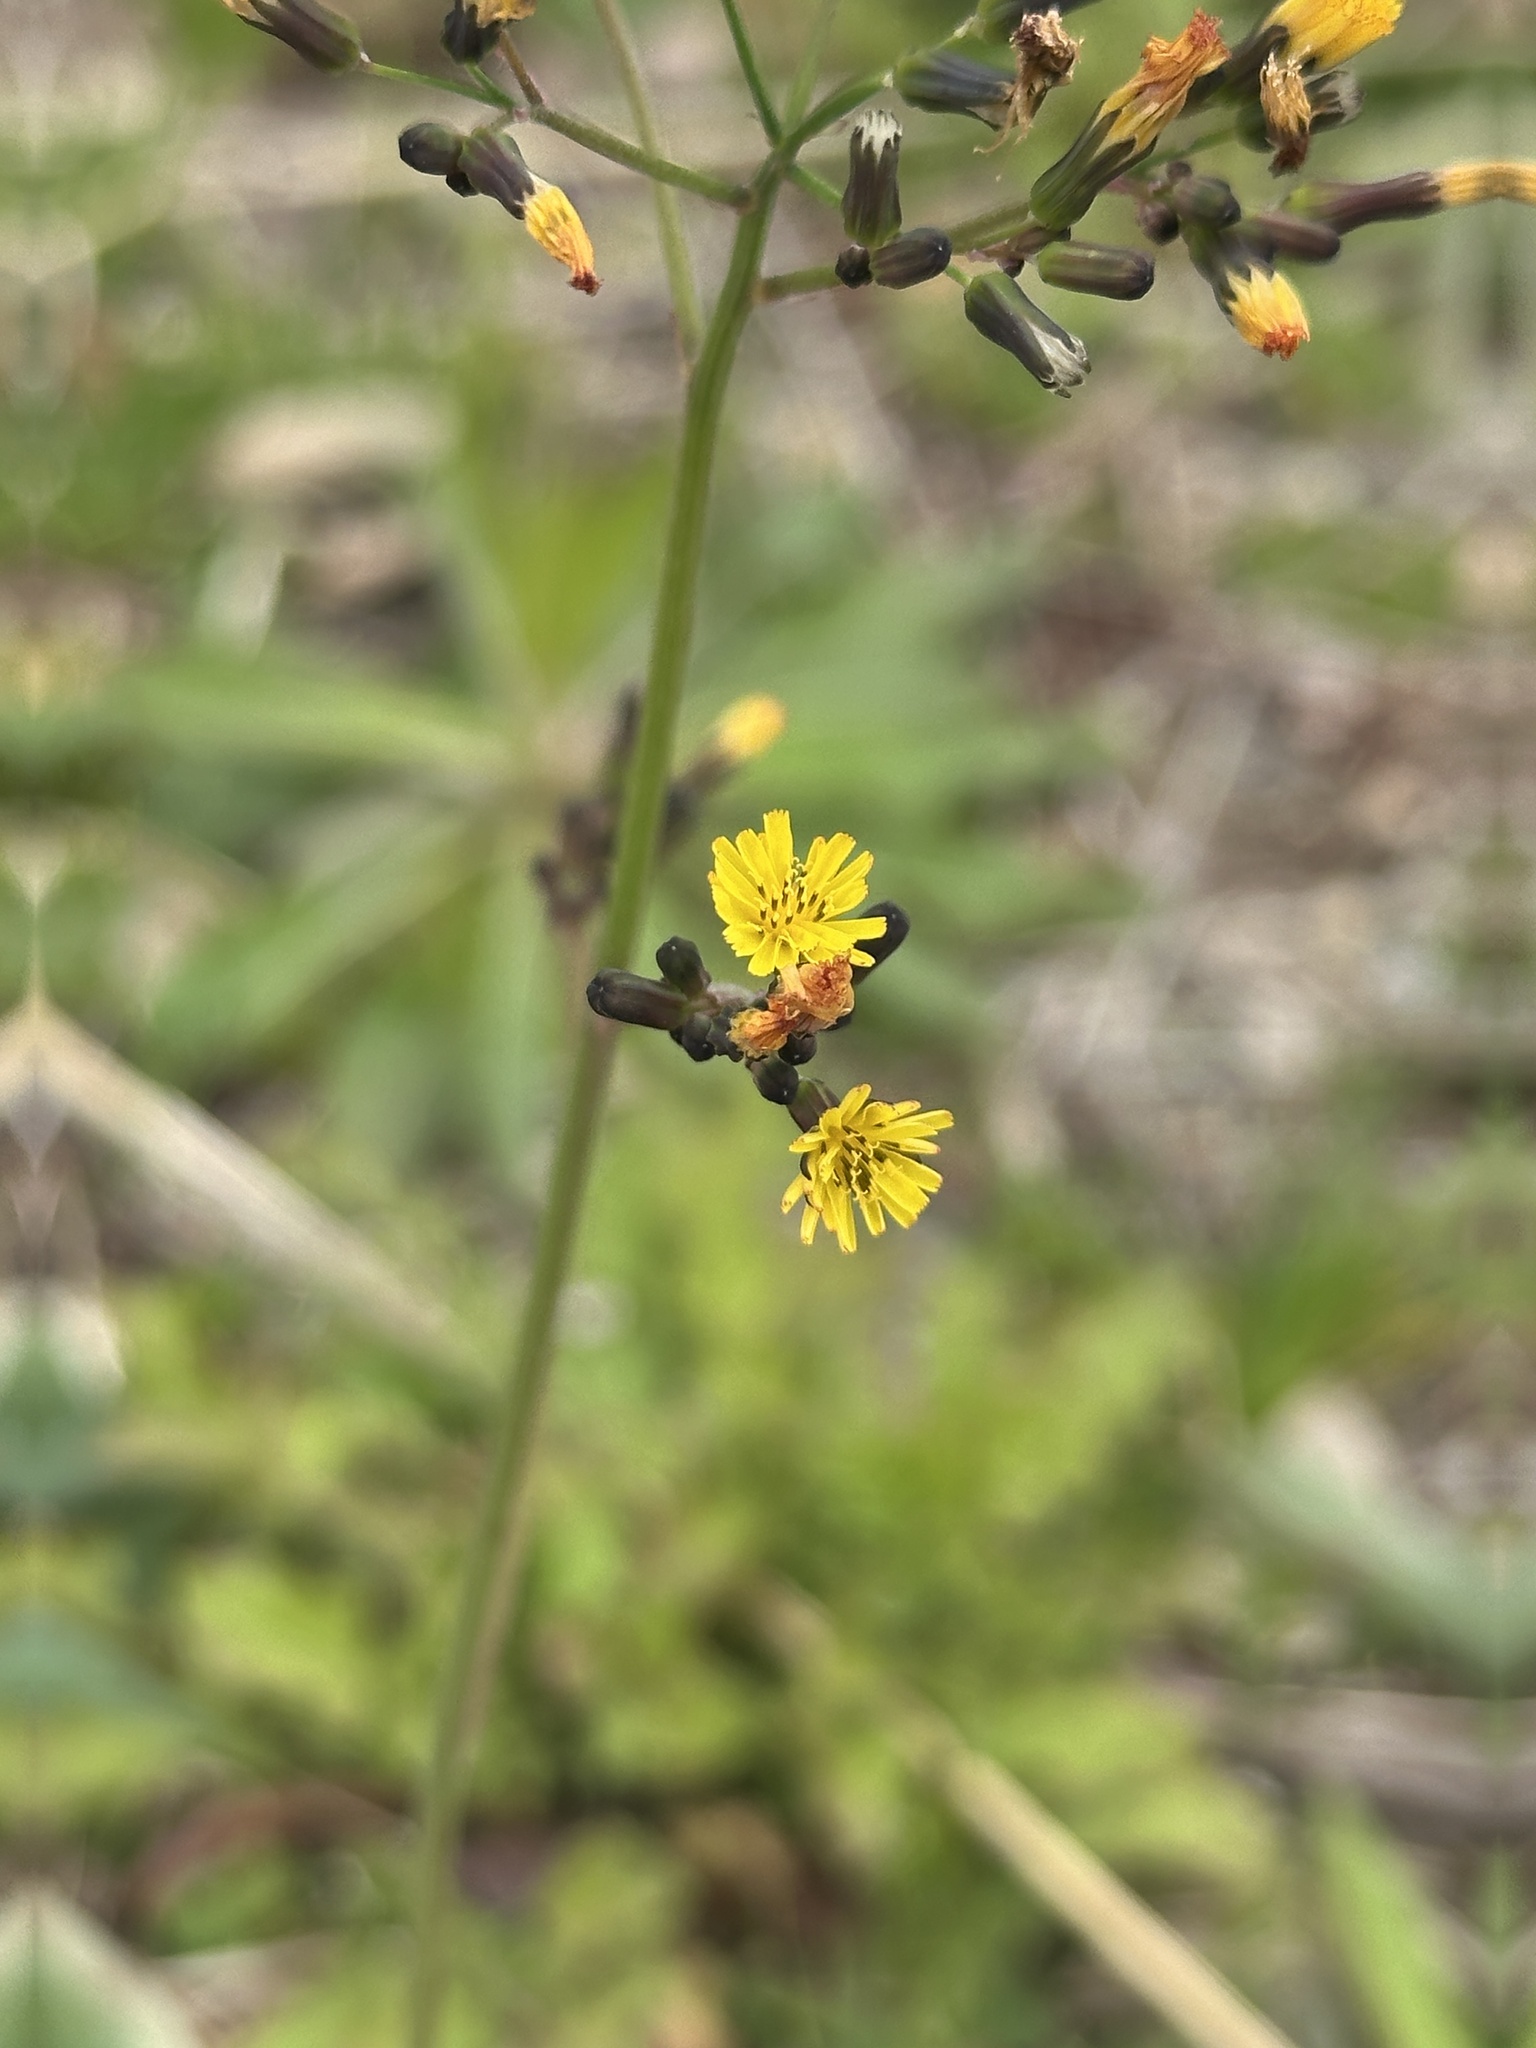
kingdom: Plantae
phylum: Tracheophyta
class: Magnoliopsida
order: Asterales
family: Asteraceae
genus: Youngia
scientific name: Youngia japonica
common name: Oriental false hawksbeard
